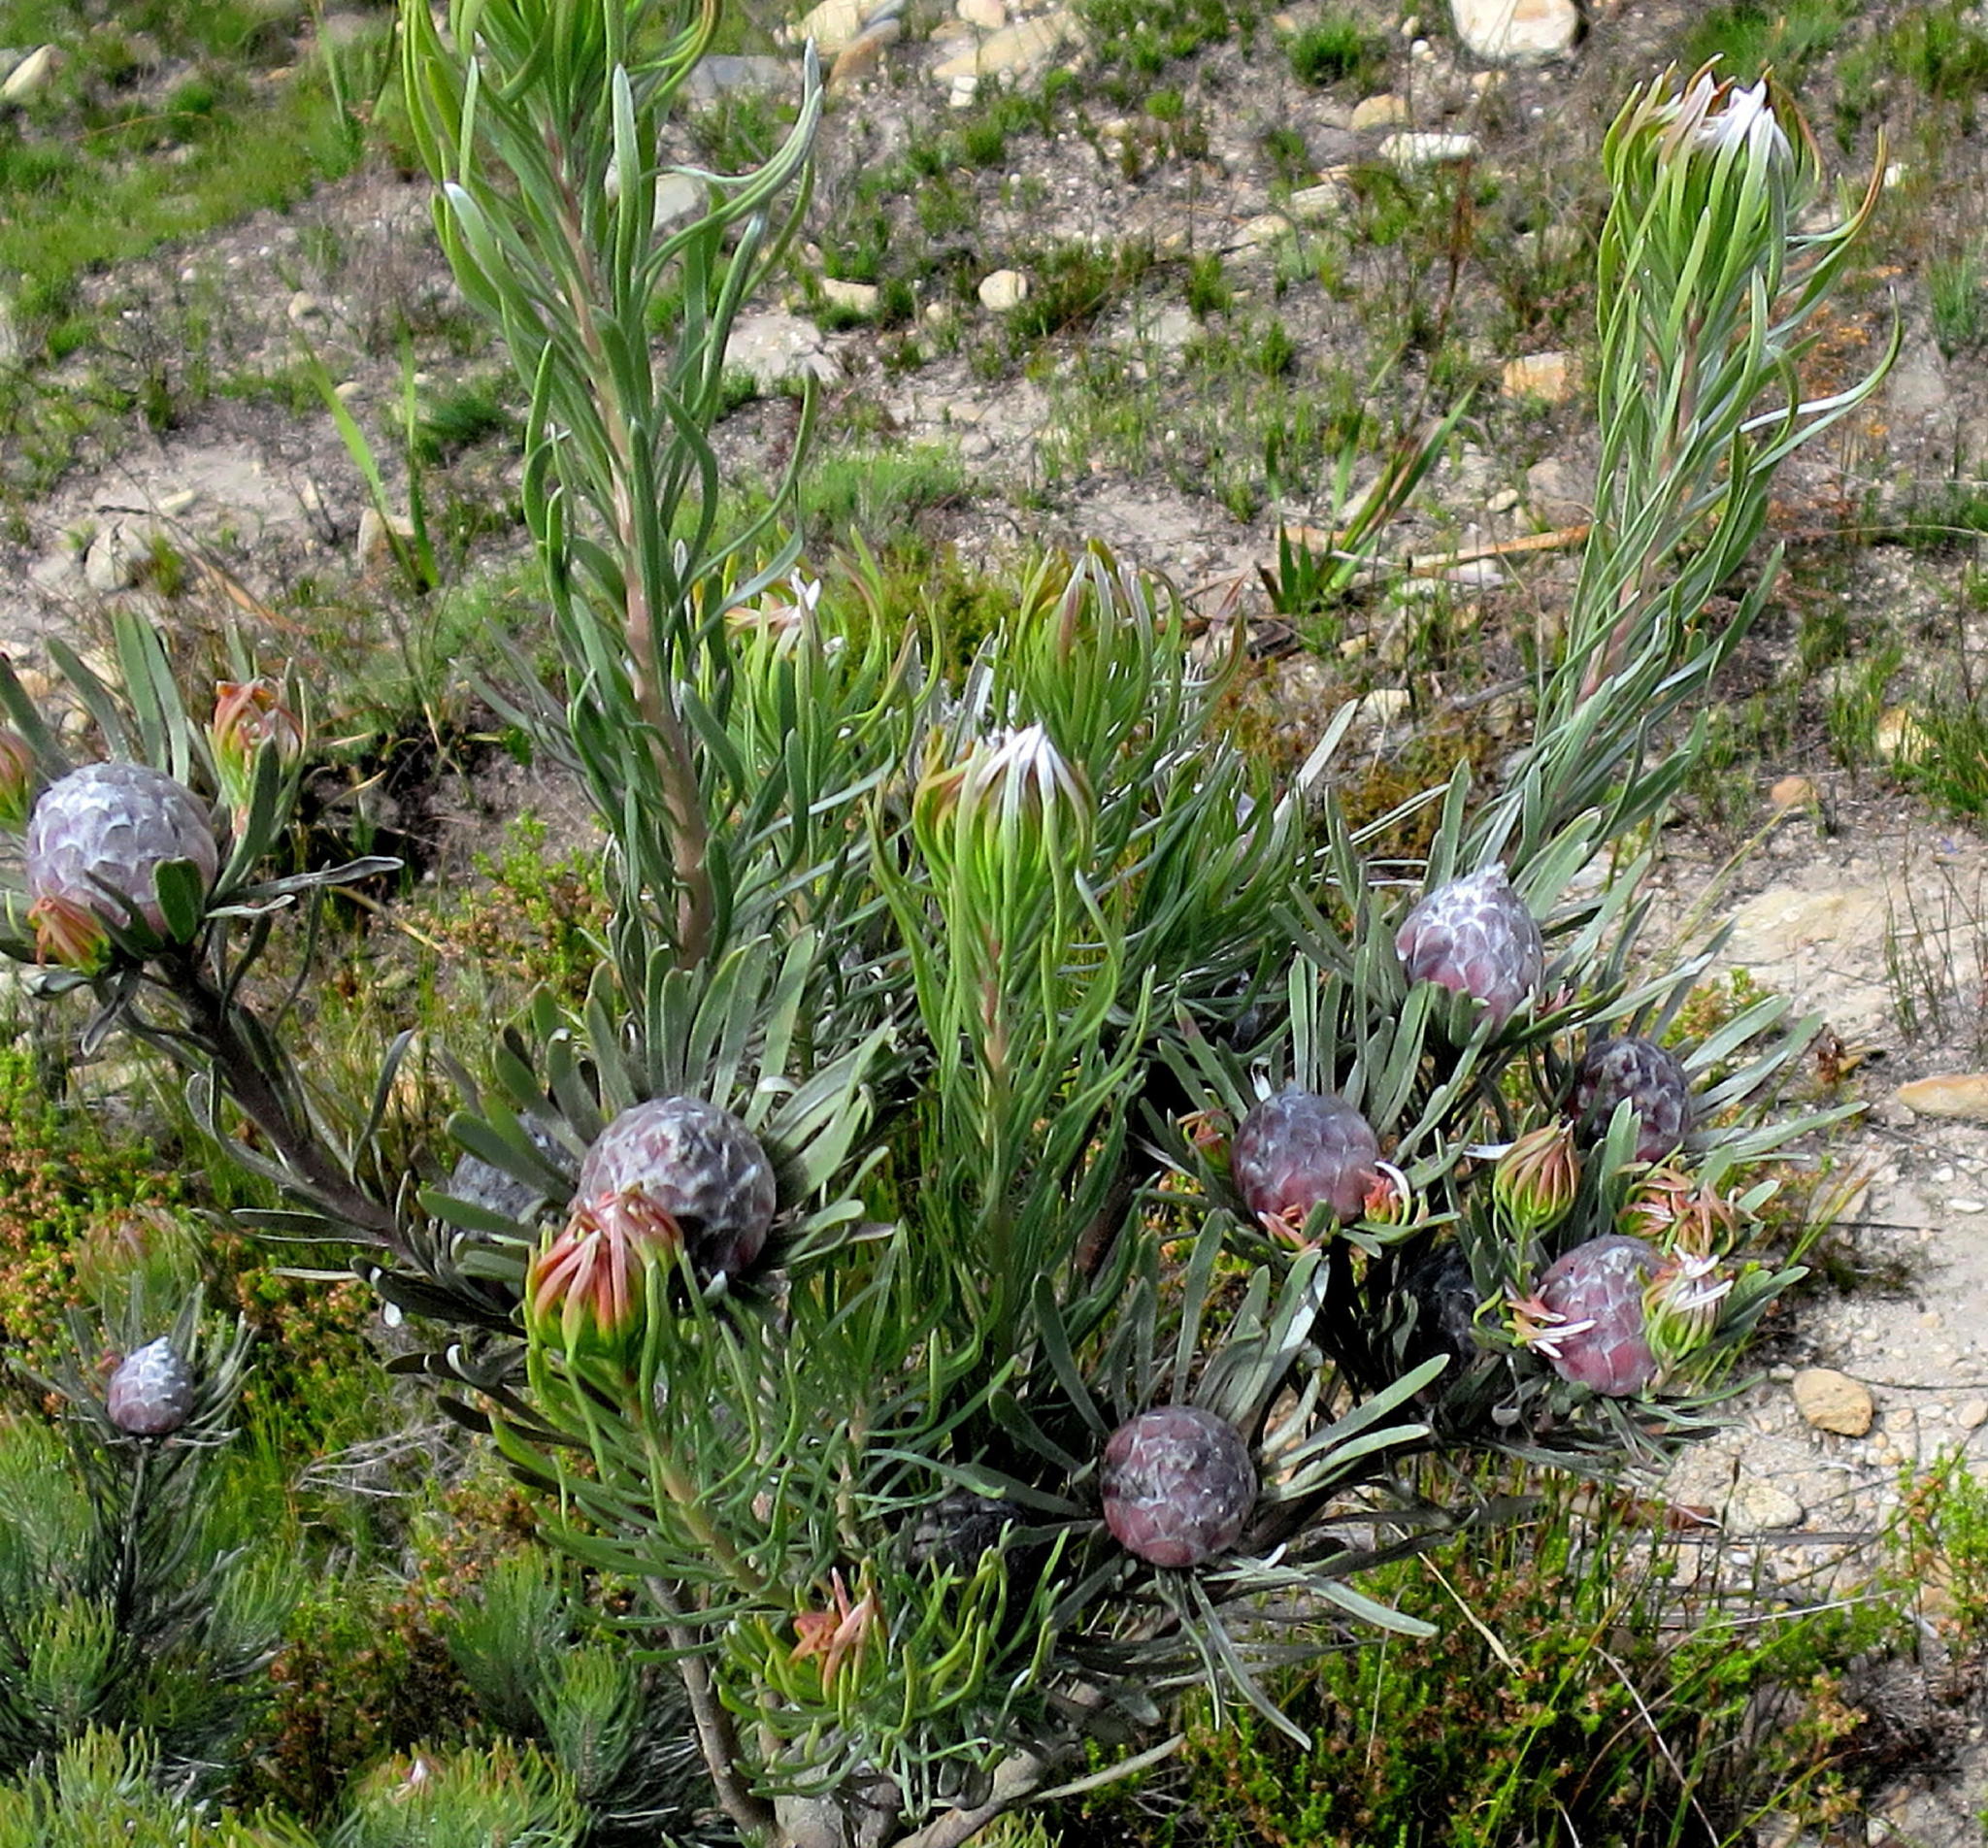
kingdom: Plantae
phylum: Tracheophyta
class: Magnoliopsida
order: Proteales
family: Proteaceae
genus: Leucadendron
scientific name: Leucadendron album
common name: Linear-leaf conebush
